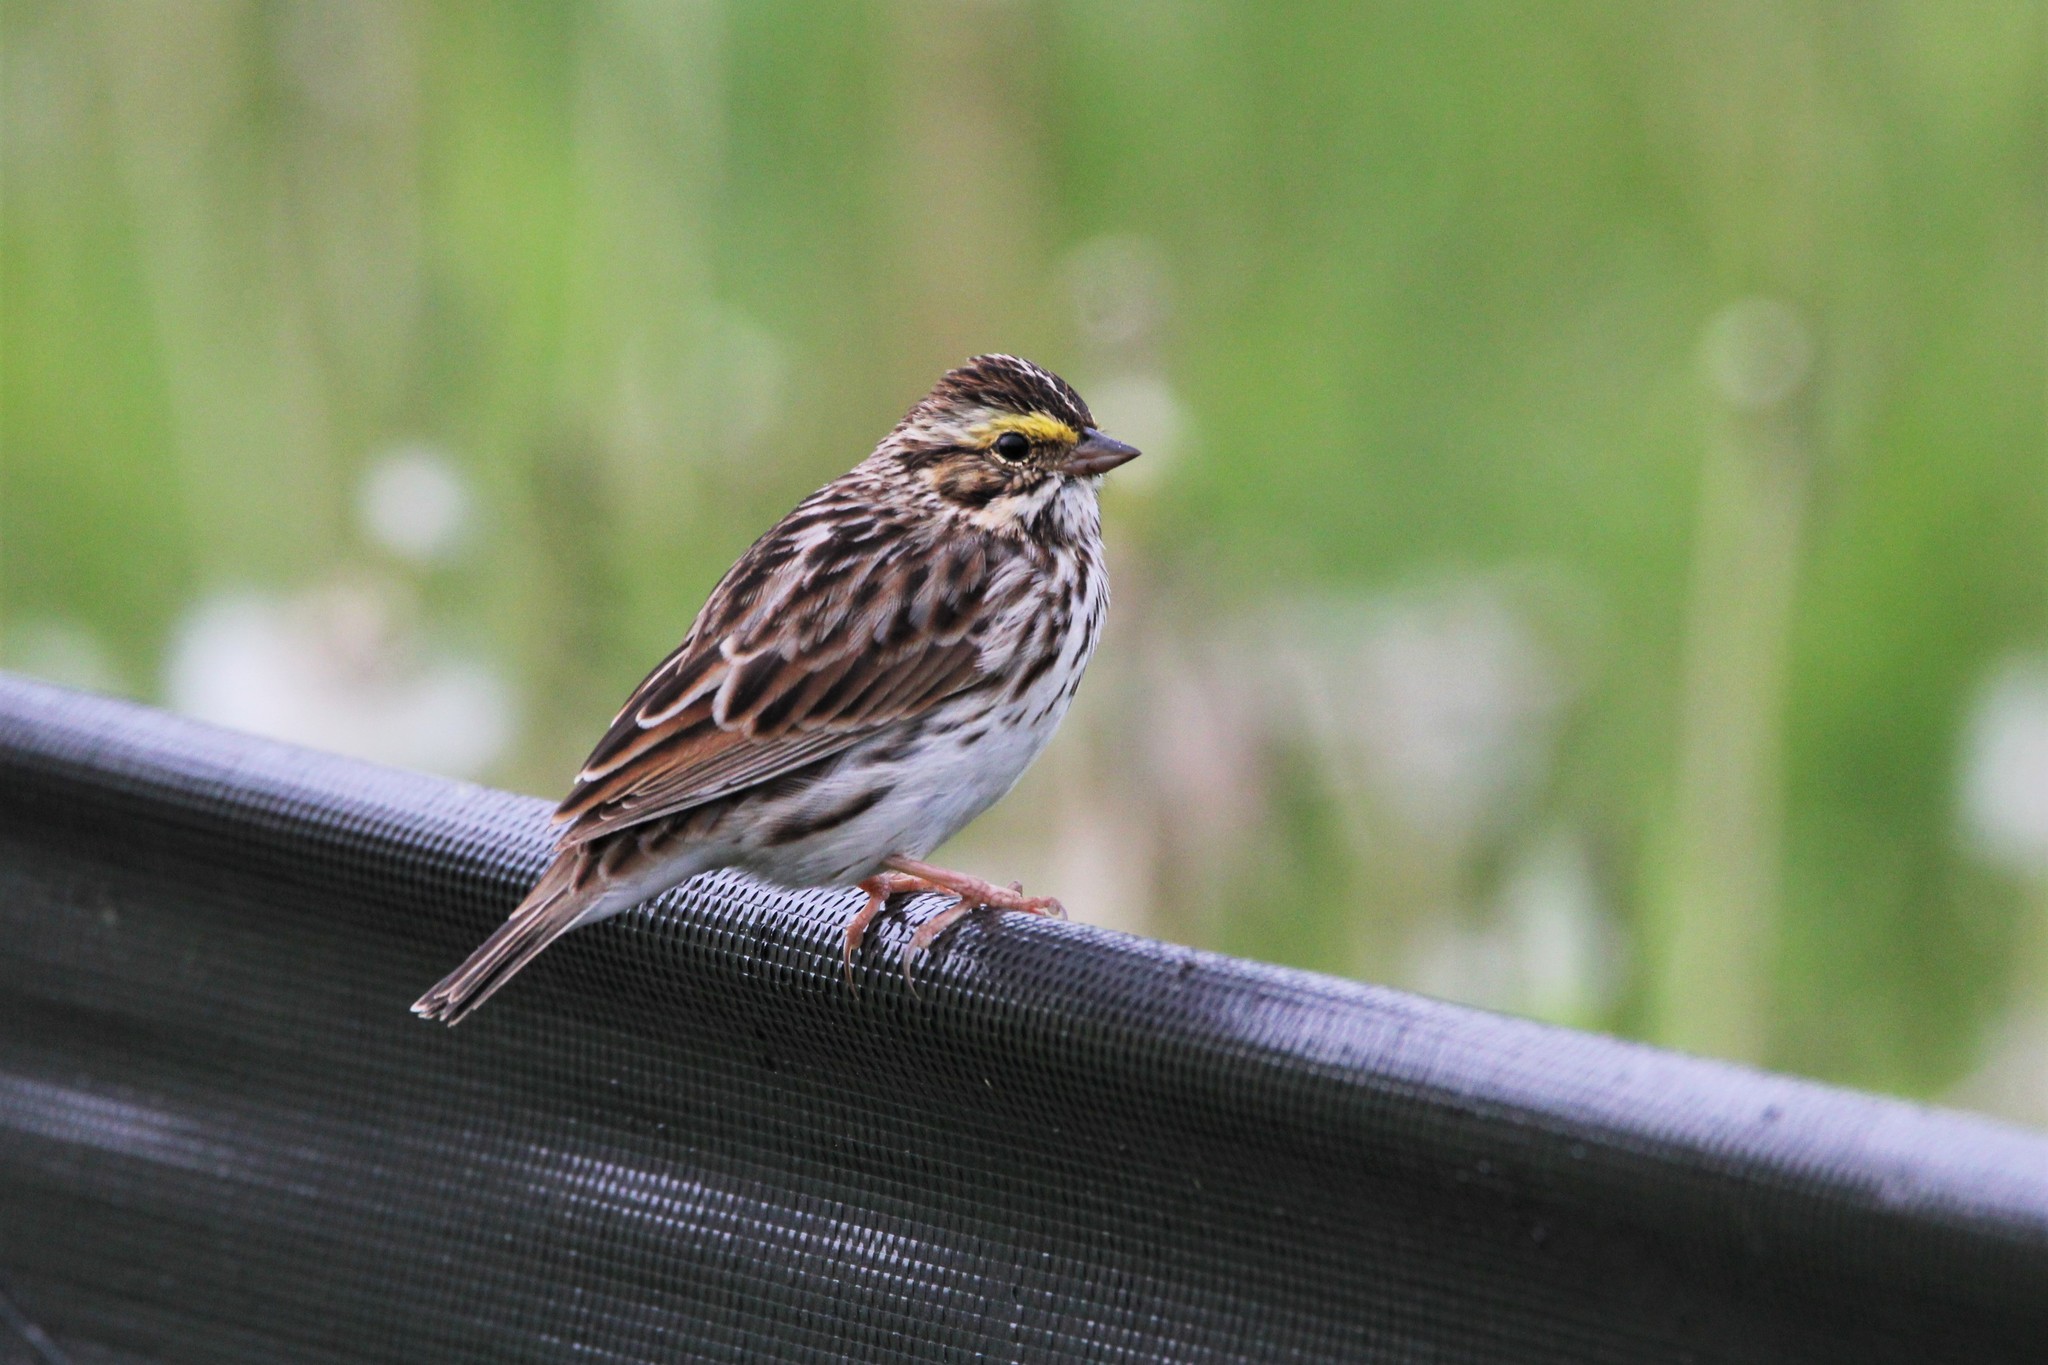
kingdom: Animalia
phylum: Chordata
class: Aves
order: Passeriformes
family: Passerellidae
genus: Passerculus
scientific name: Passerculus sandwichensis
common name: Savannah sparrow
